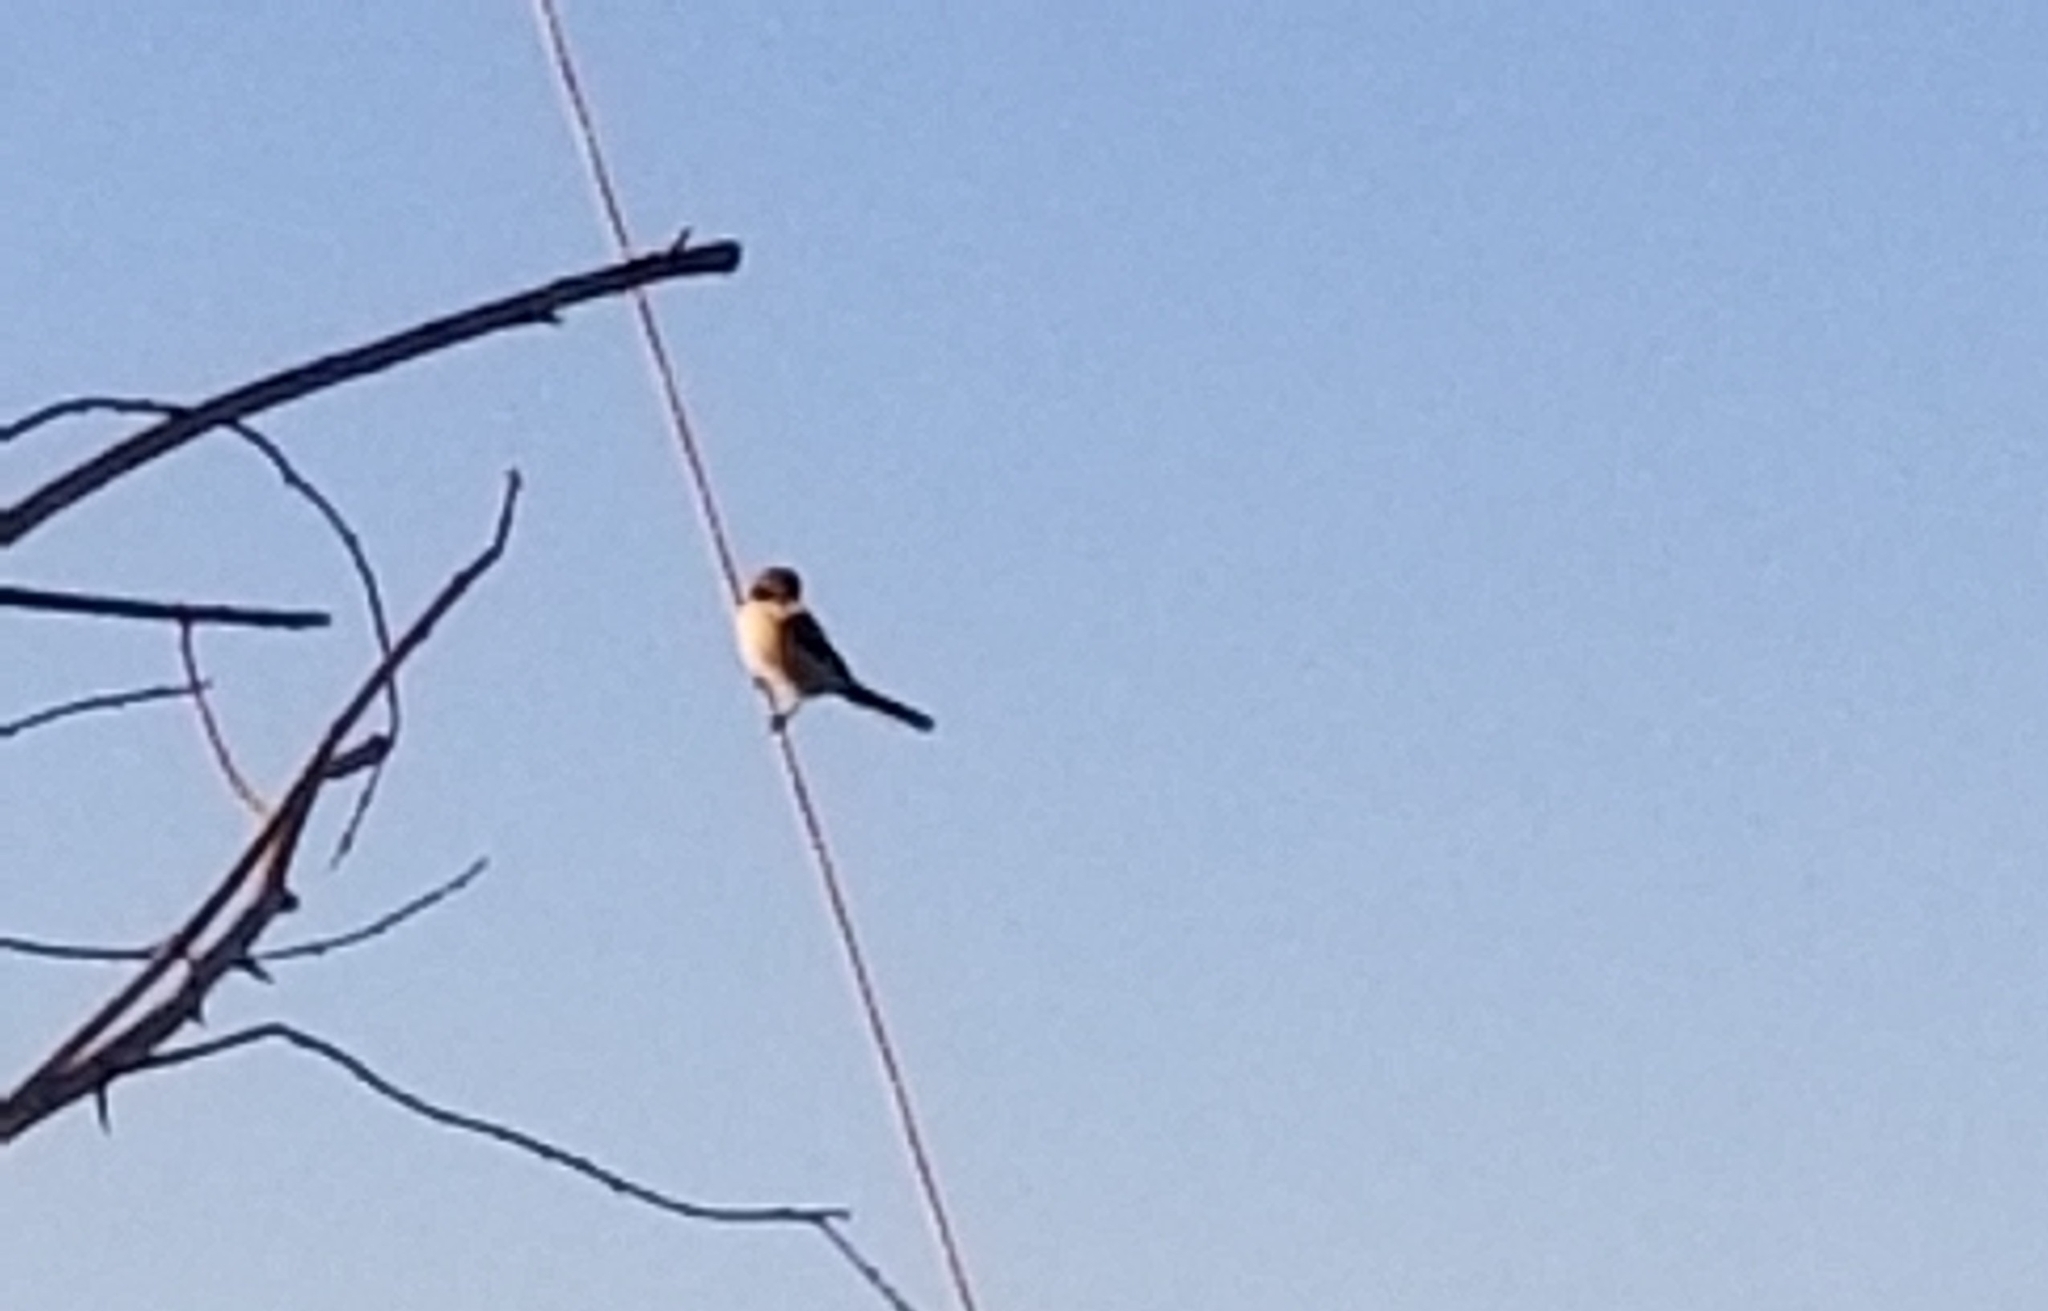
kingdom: Animalia
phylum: Chordata
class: Aves
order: Passeriformes
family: Laniidae
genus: Lanius
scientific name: Lanius ludovicianus
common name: Loggerhead shrike
